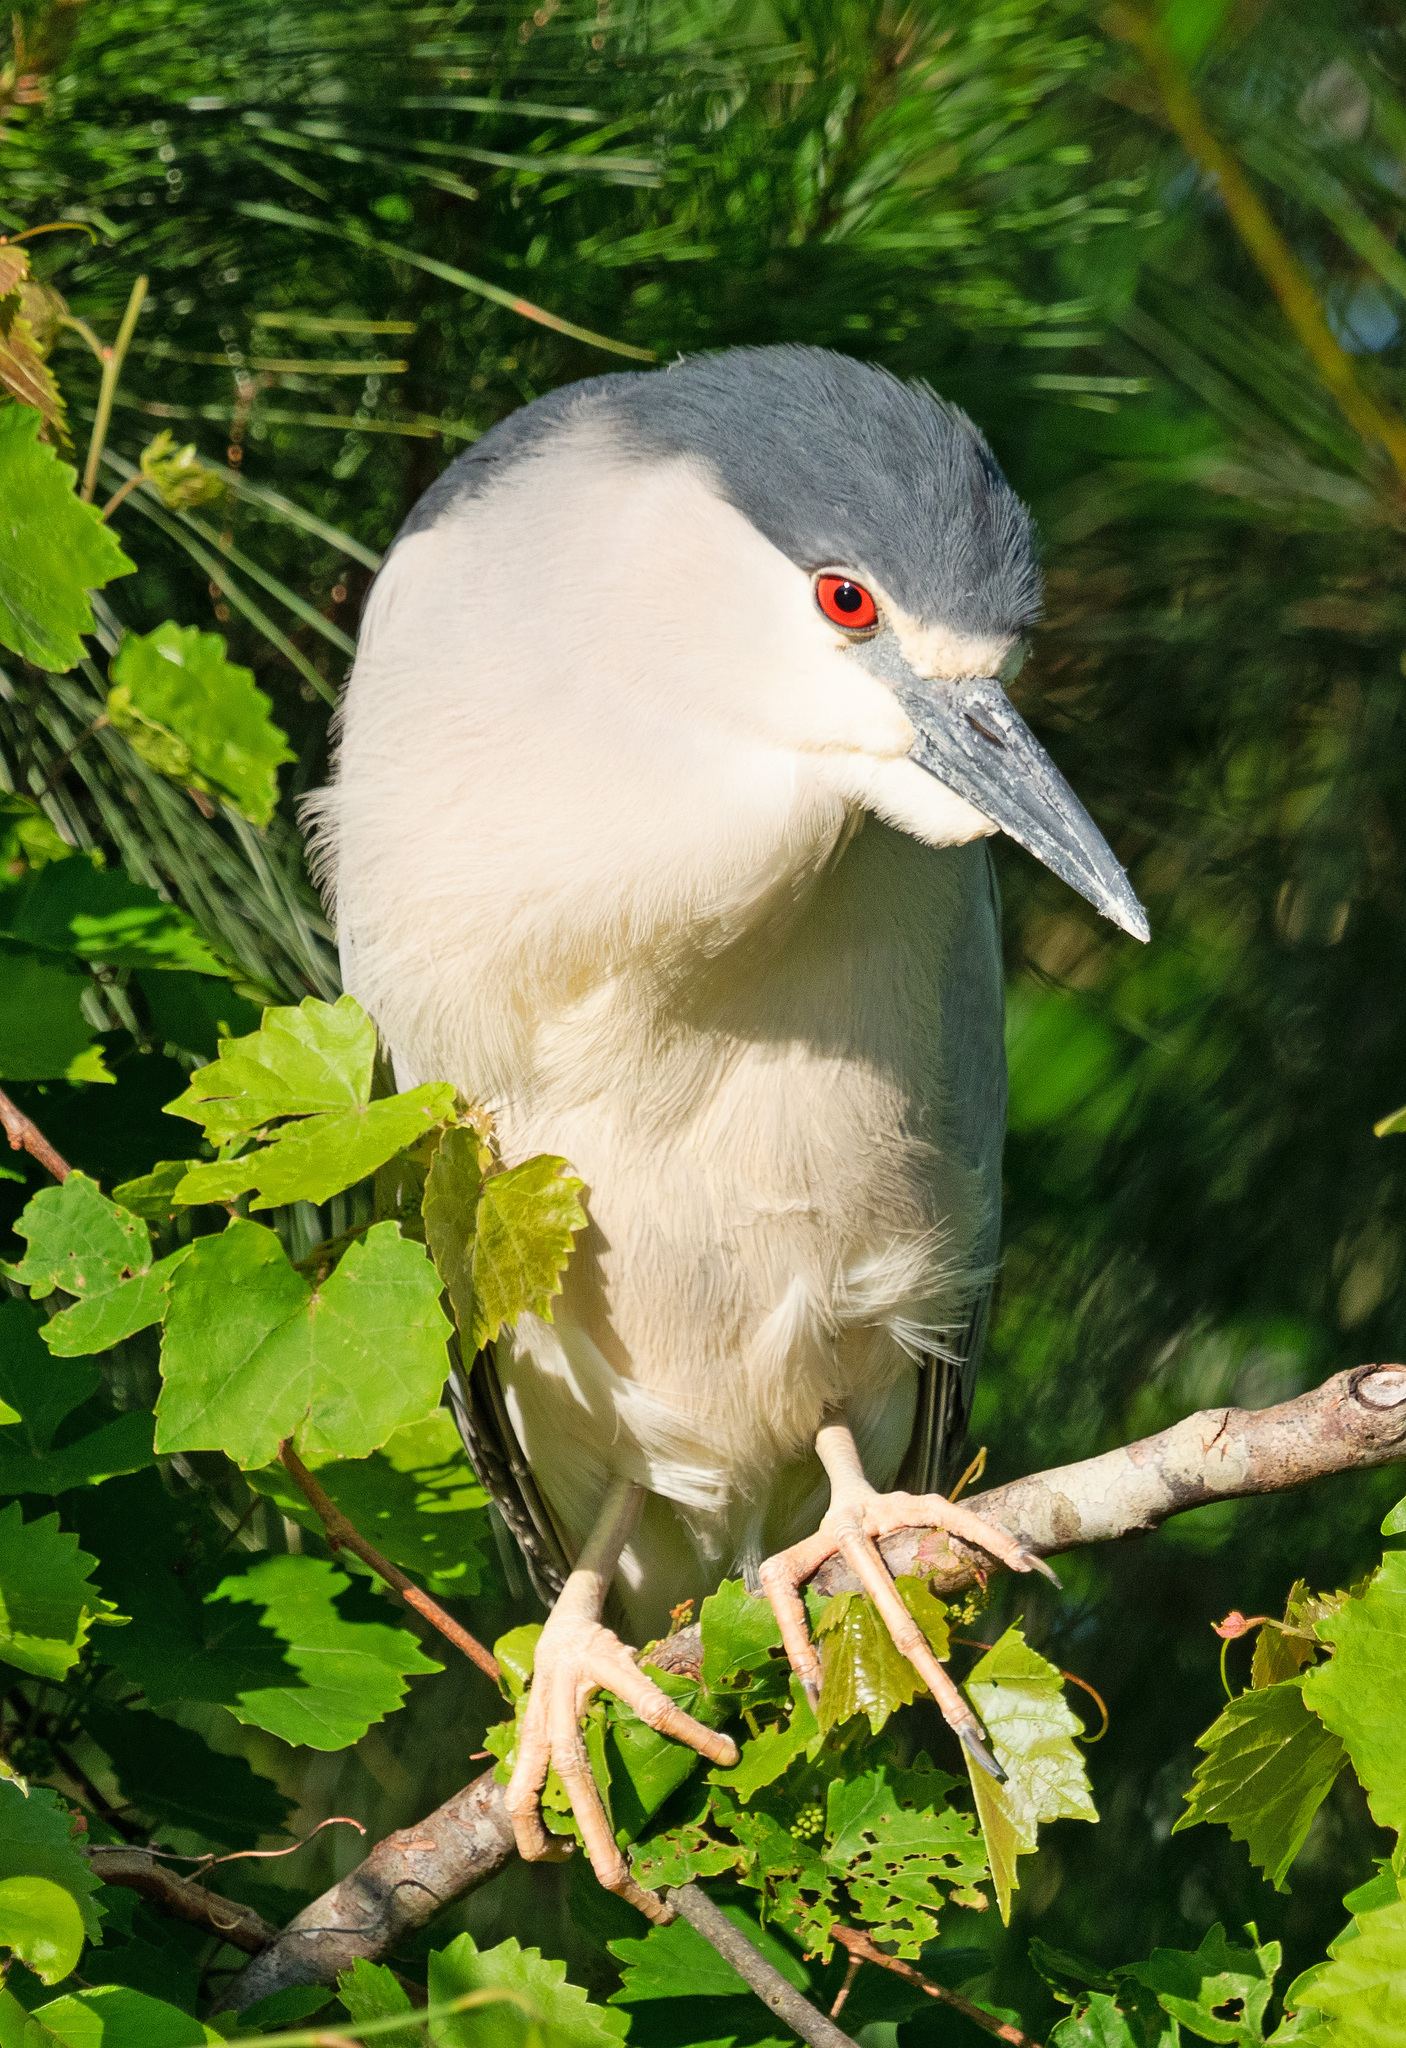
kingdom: Animalia
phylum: Chordata
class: Aves
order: Pelecaniformes
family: Ardeidae
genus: Nycticorax
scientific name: Nycticorax nycticorax
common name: Black-crowned night heron
